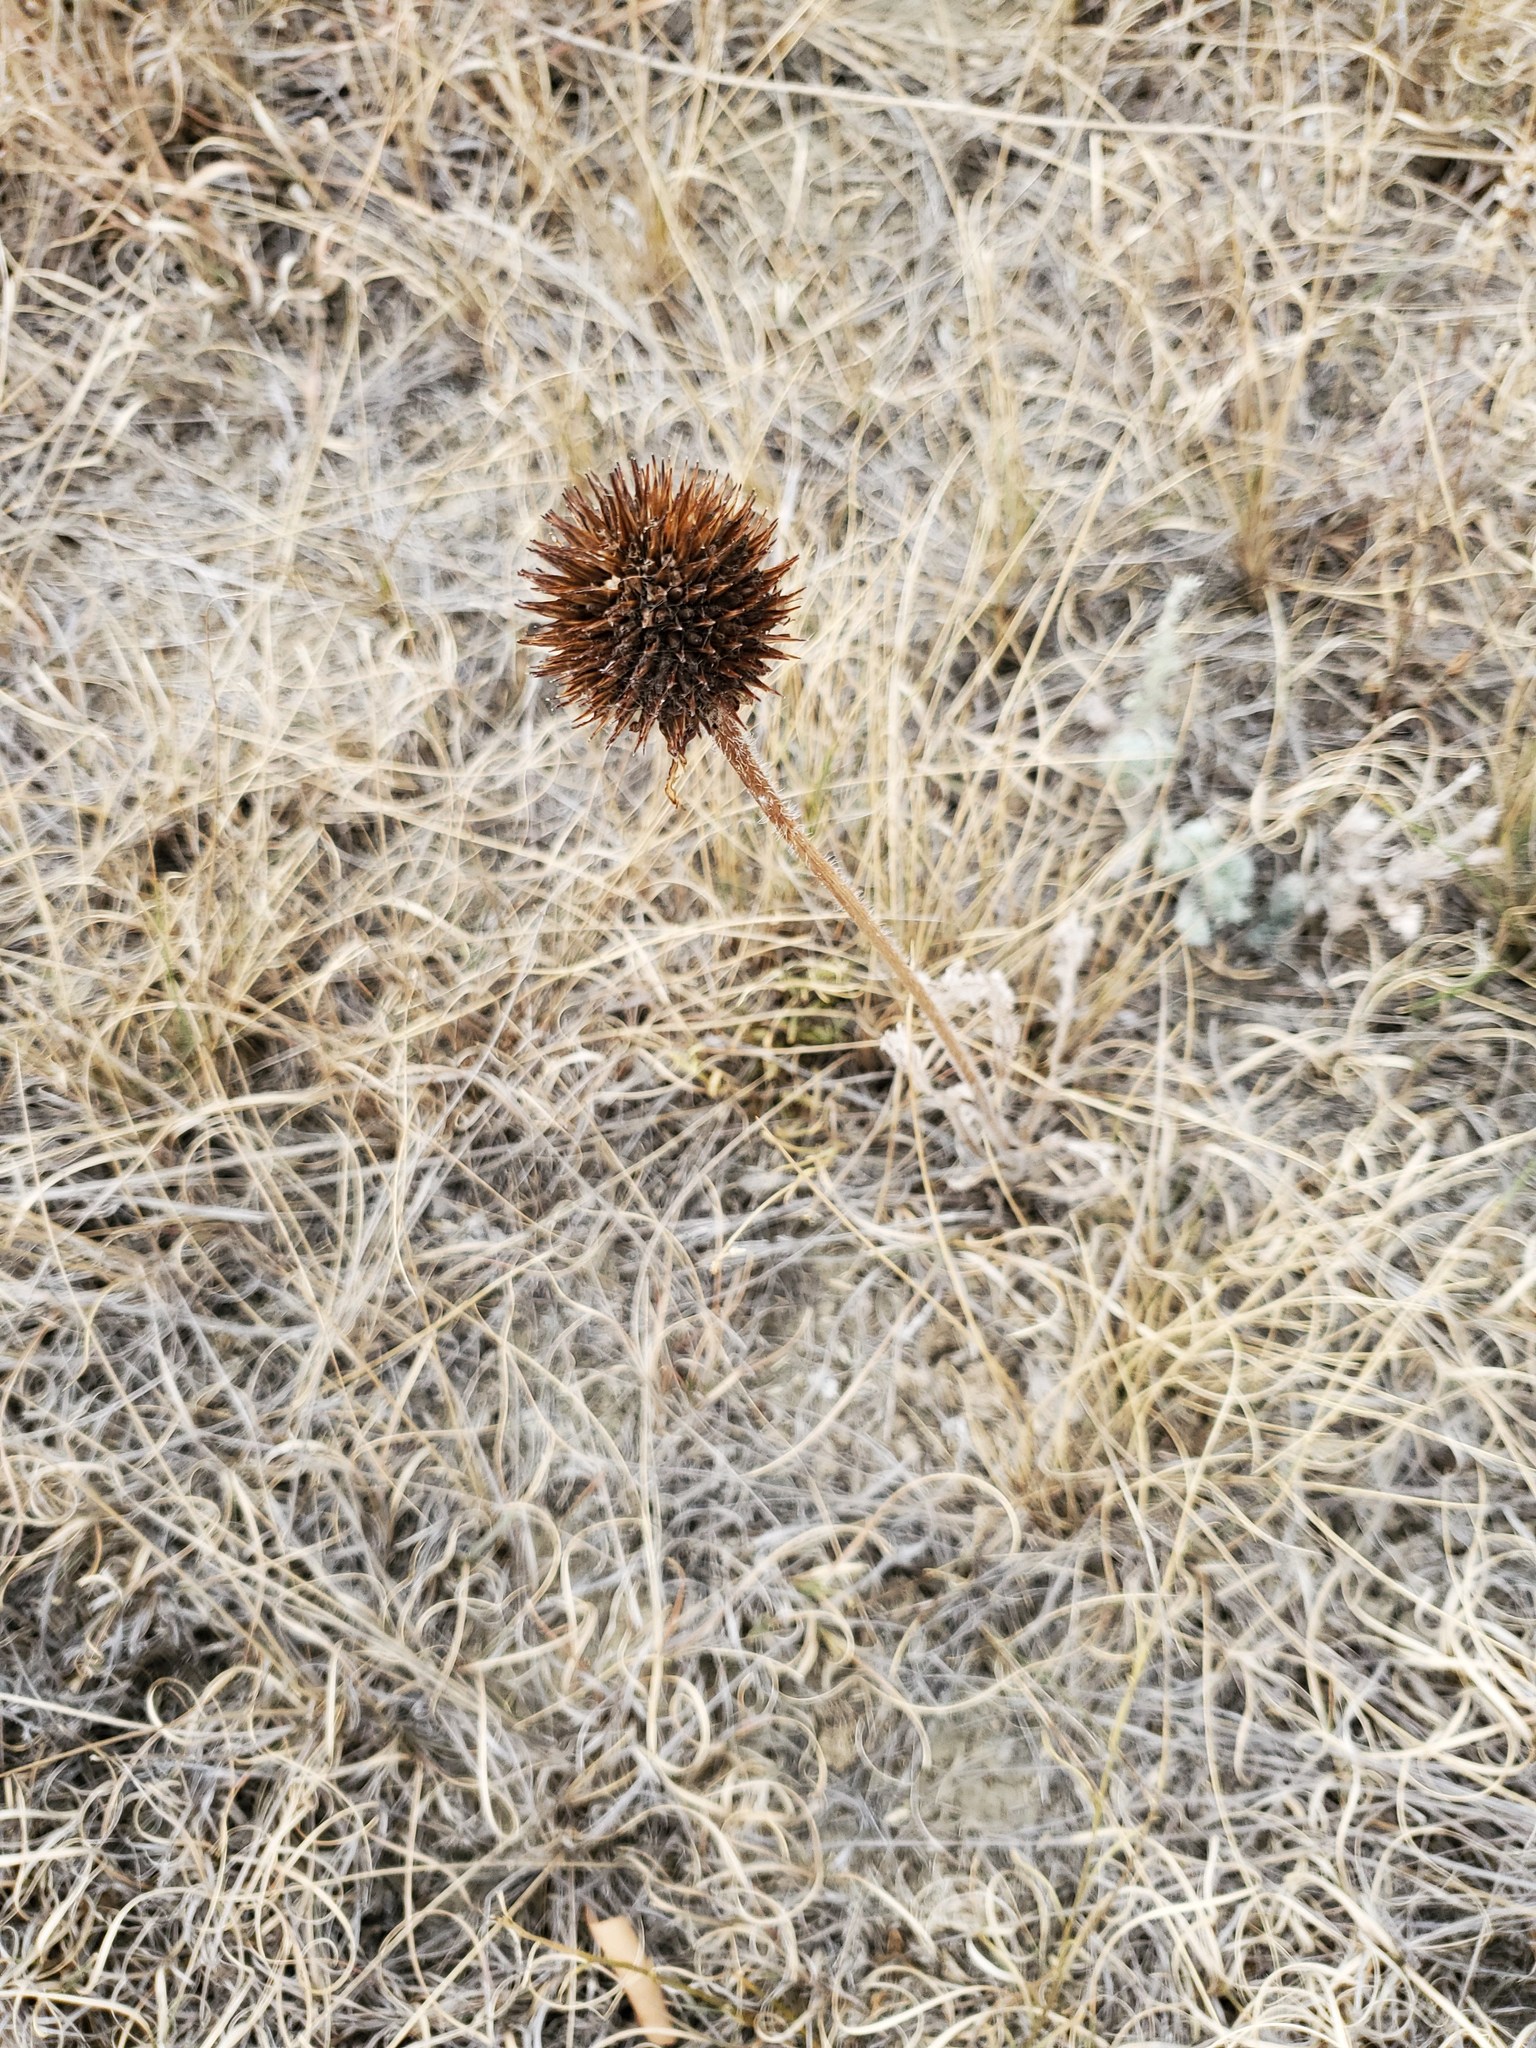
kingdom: Plantae
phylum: Tracheophyta
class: Magnoliopsida
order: Asterales
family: Asteraceae
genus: Echinacea
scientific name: Echinacea angustifolia
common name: Black-sampson echinacea
